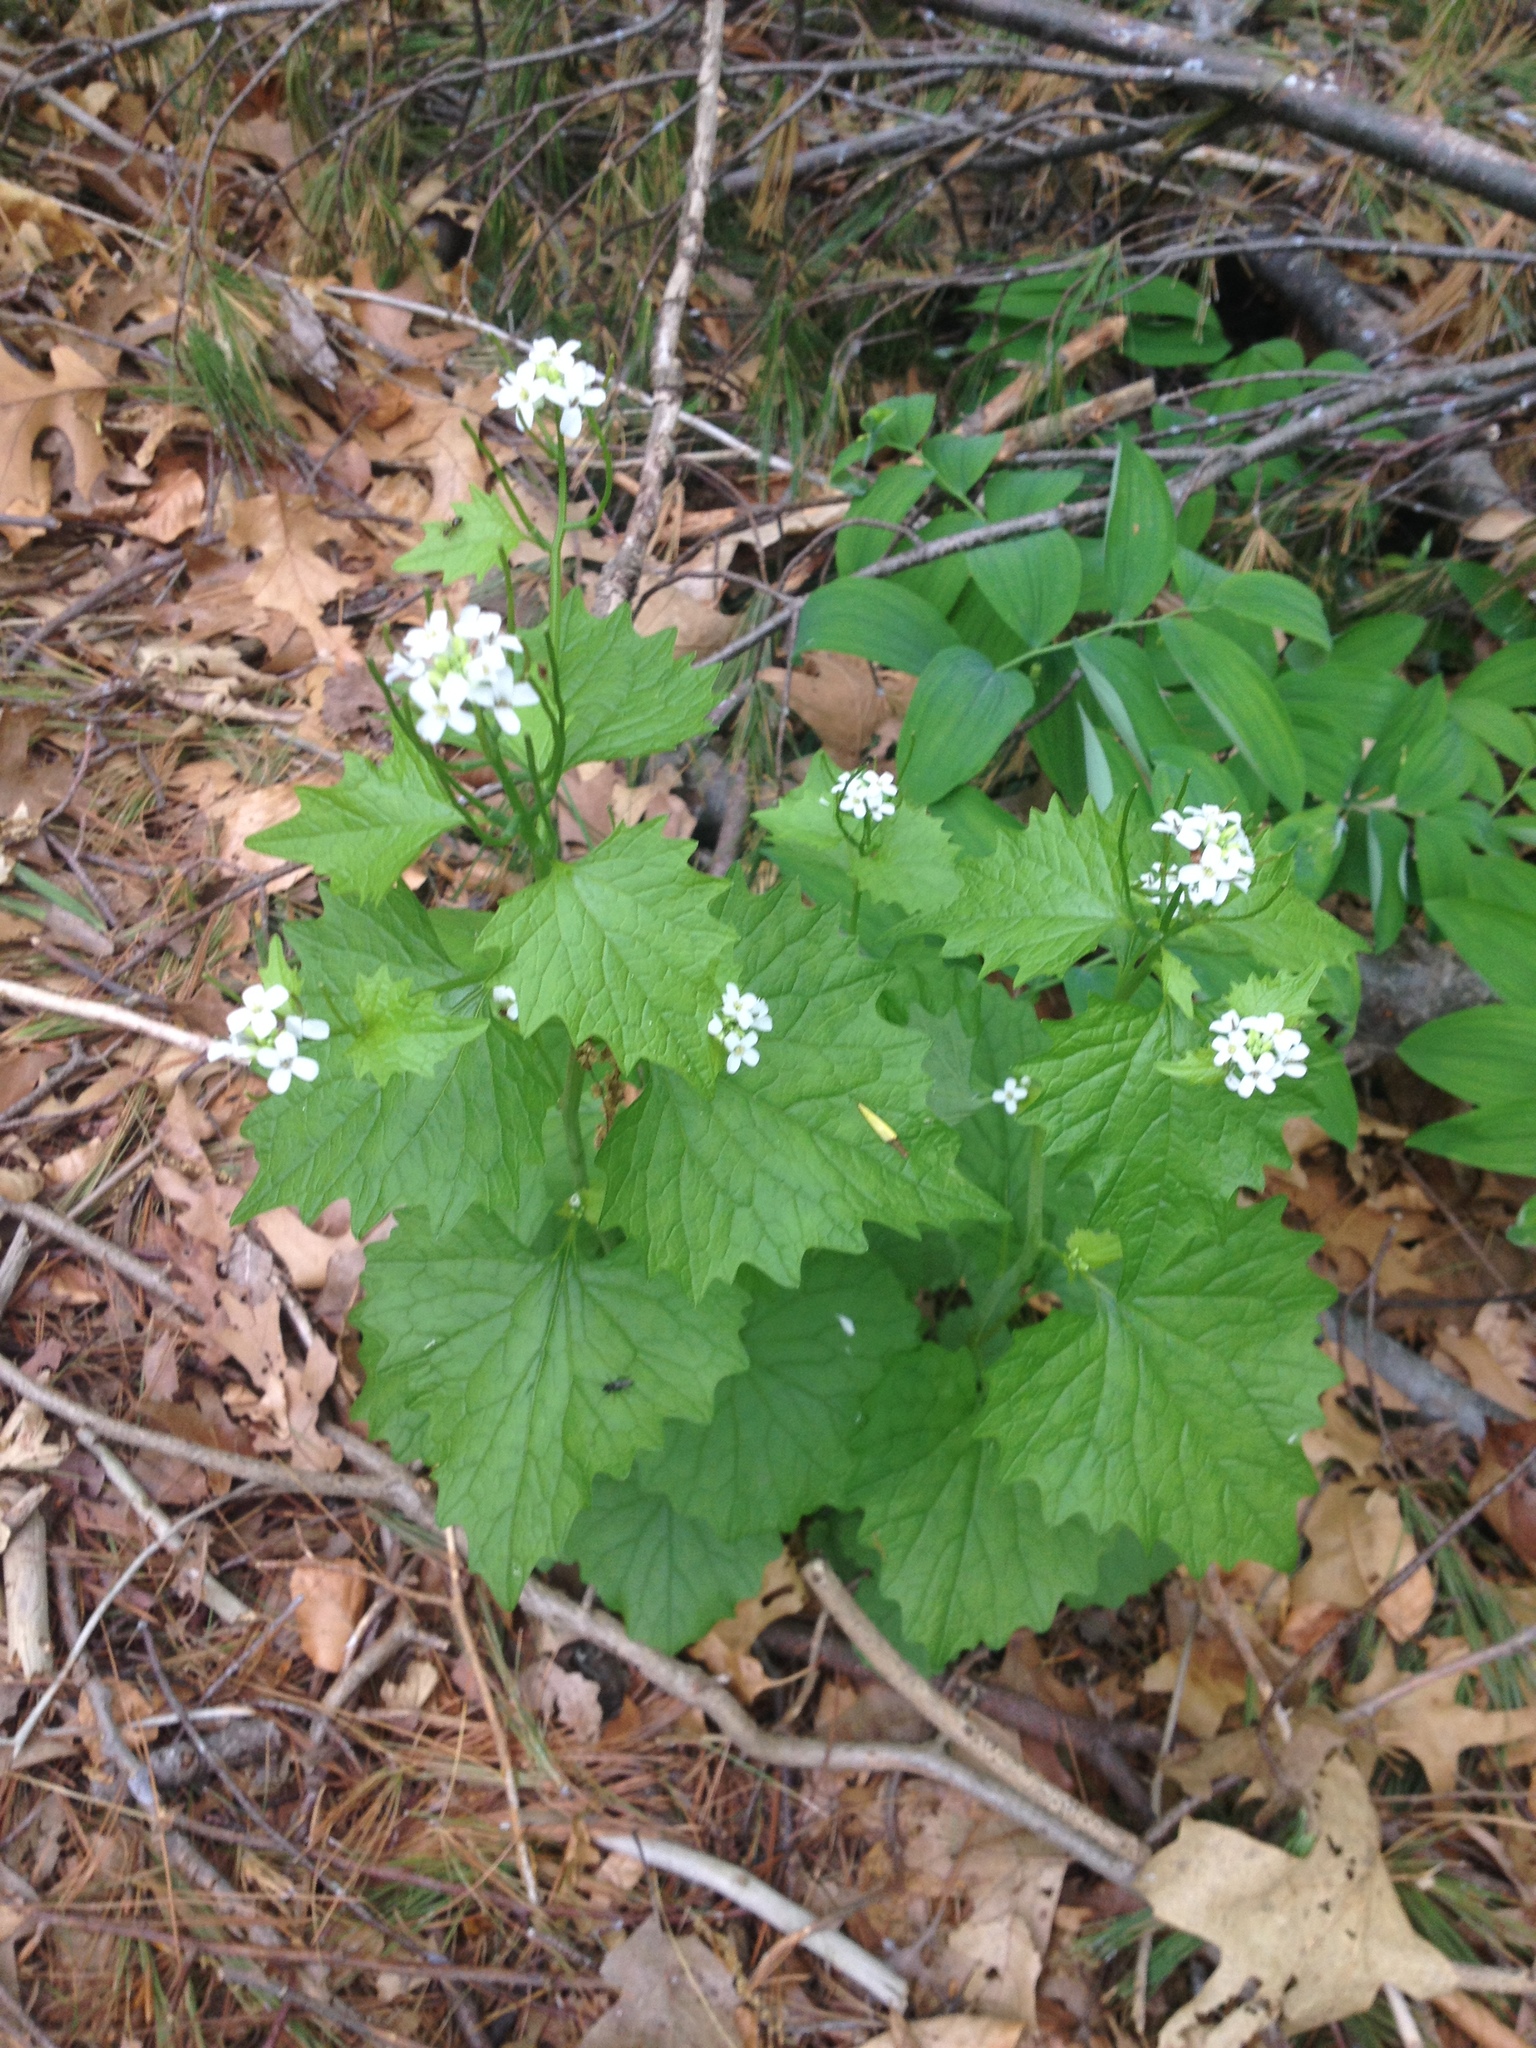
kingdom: Plantae
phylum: Tracheophyta
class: Magnoliopsida
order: Brassicales
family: Brassicaceae
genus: Alliaria
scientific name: Alliaria petiolata
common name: Garlic mustard
